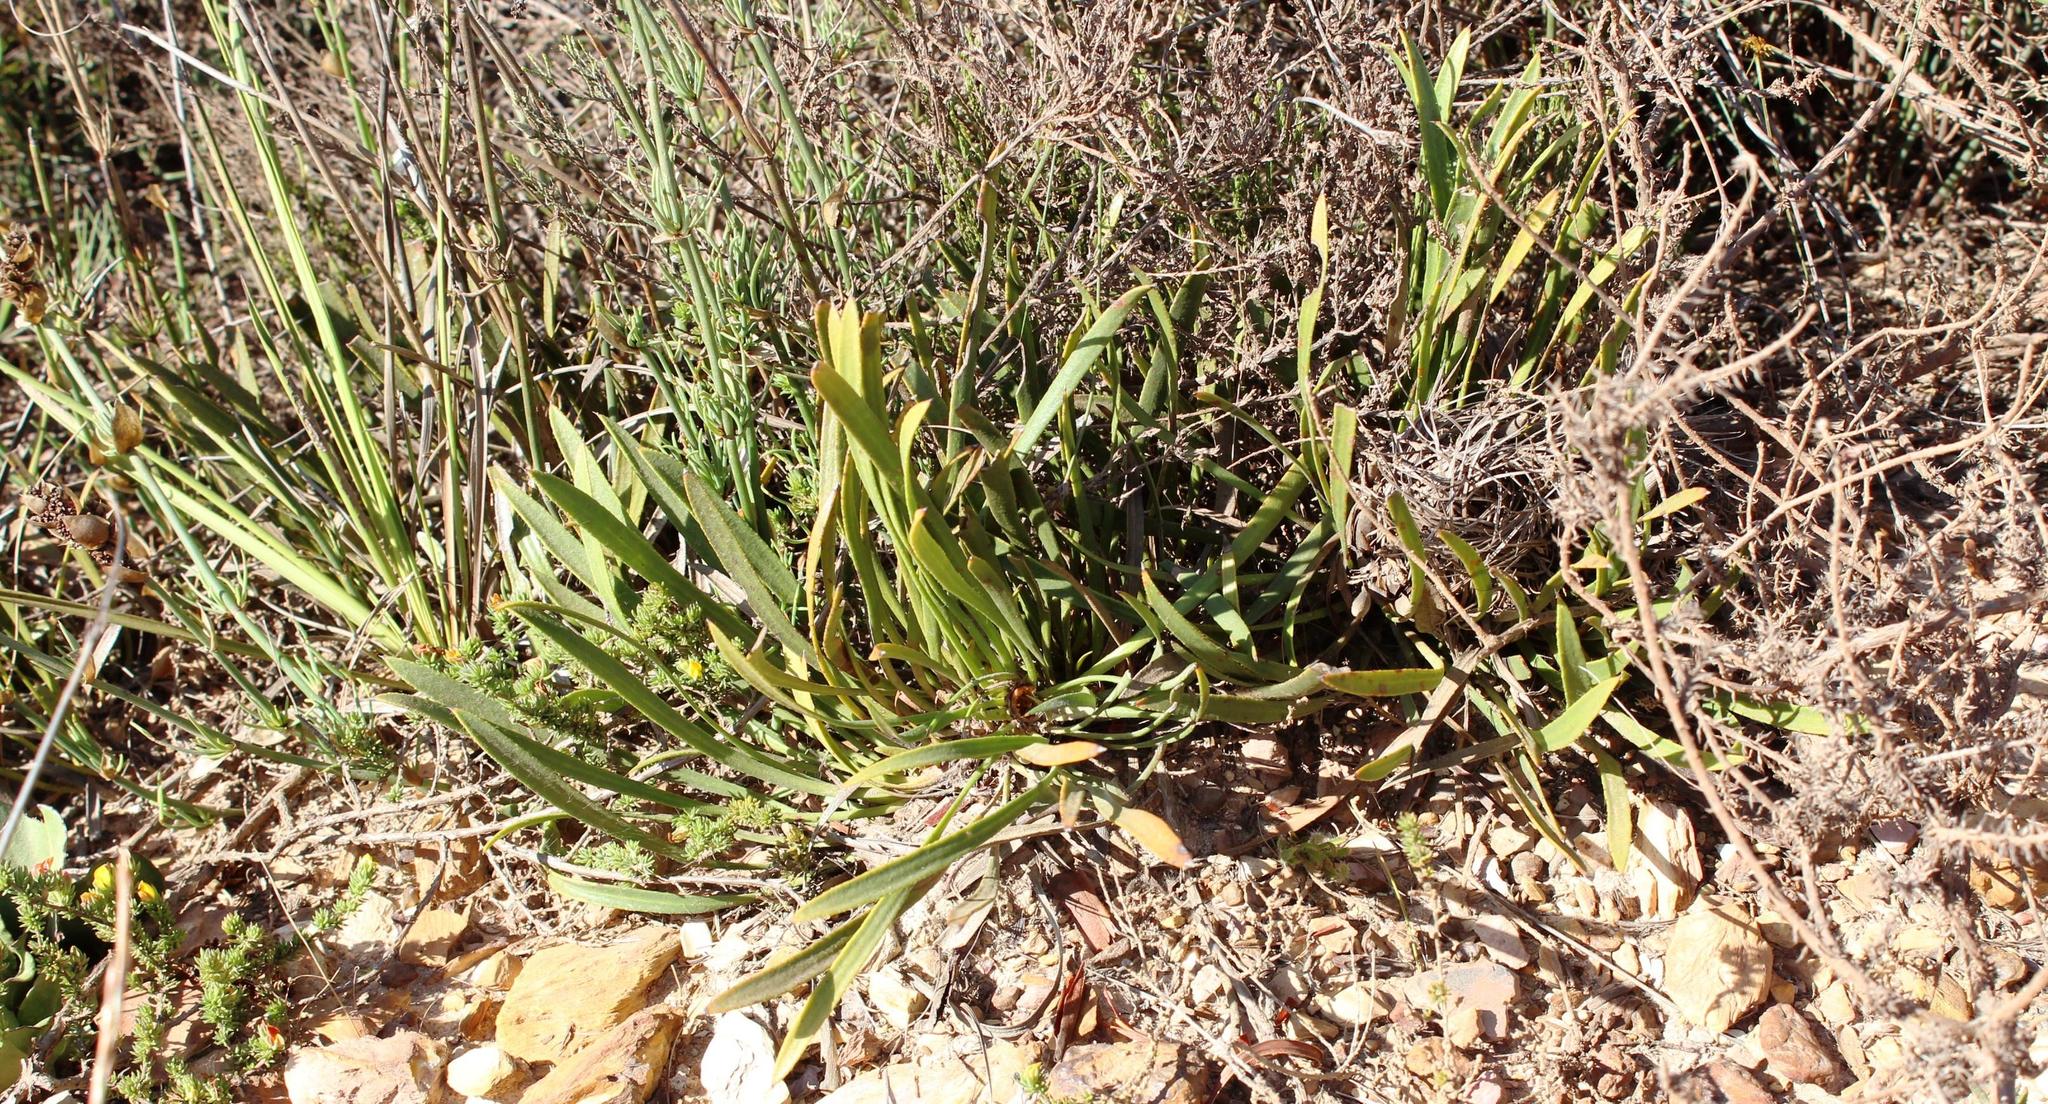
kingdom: Plantae
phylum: Tracheophyta
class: Magnoliopsida
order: Proteales
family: Proteaceae
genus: Protea
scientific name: Protea aspera
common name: Rough-leaf sugarbush
